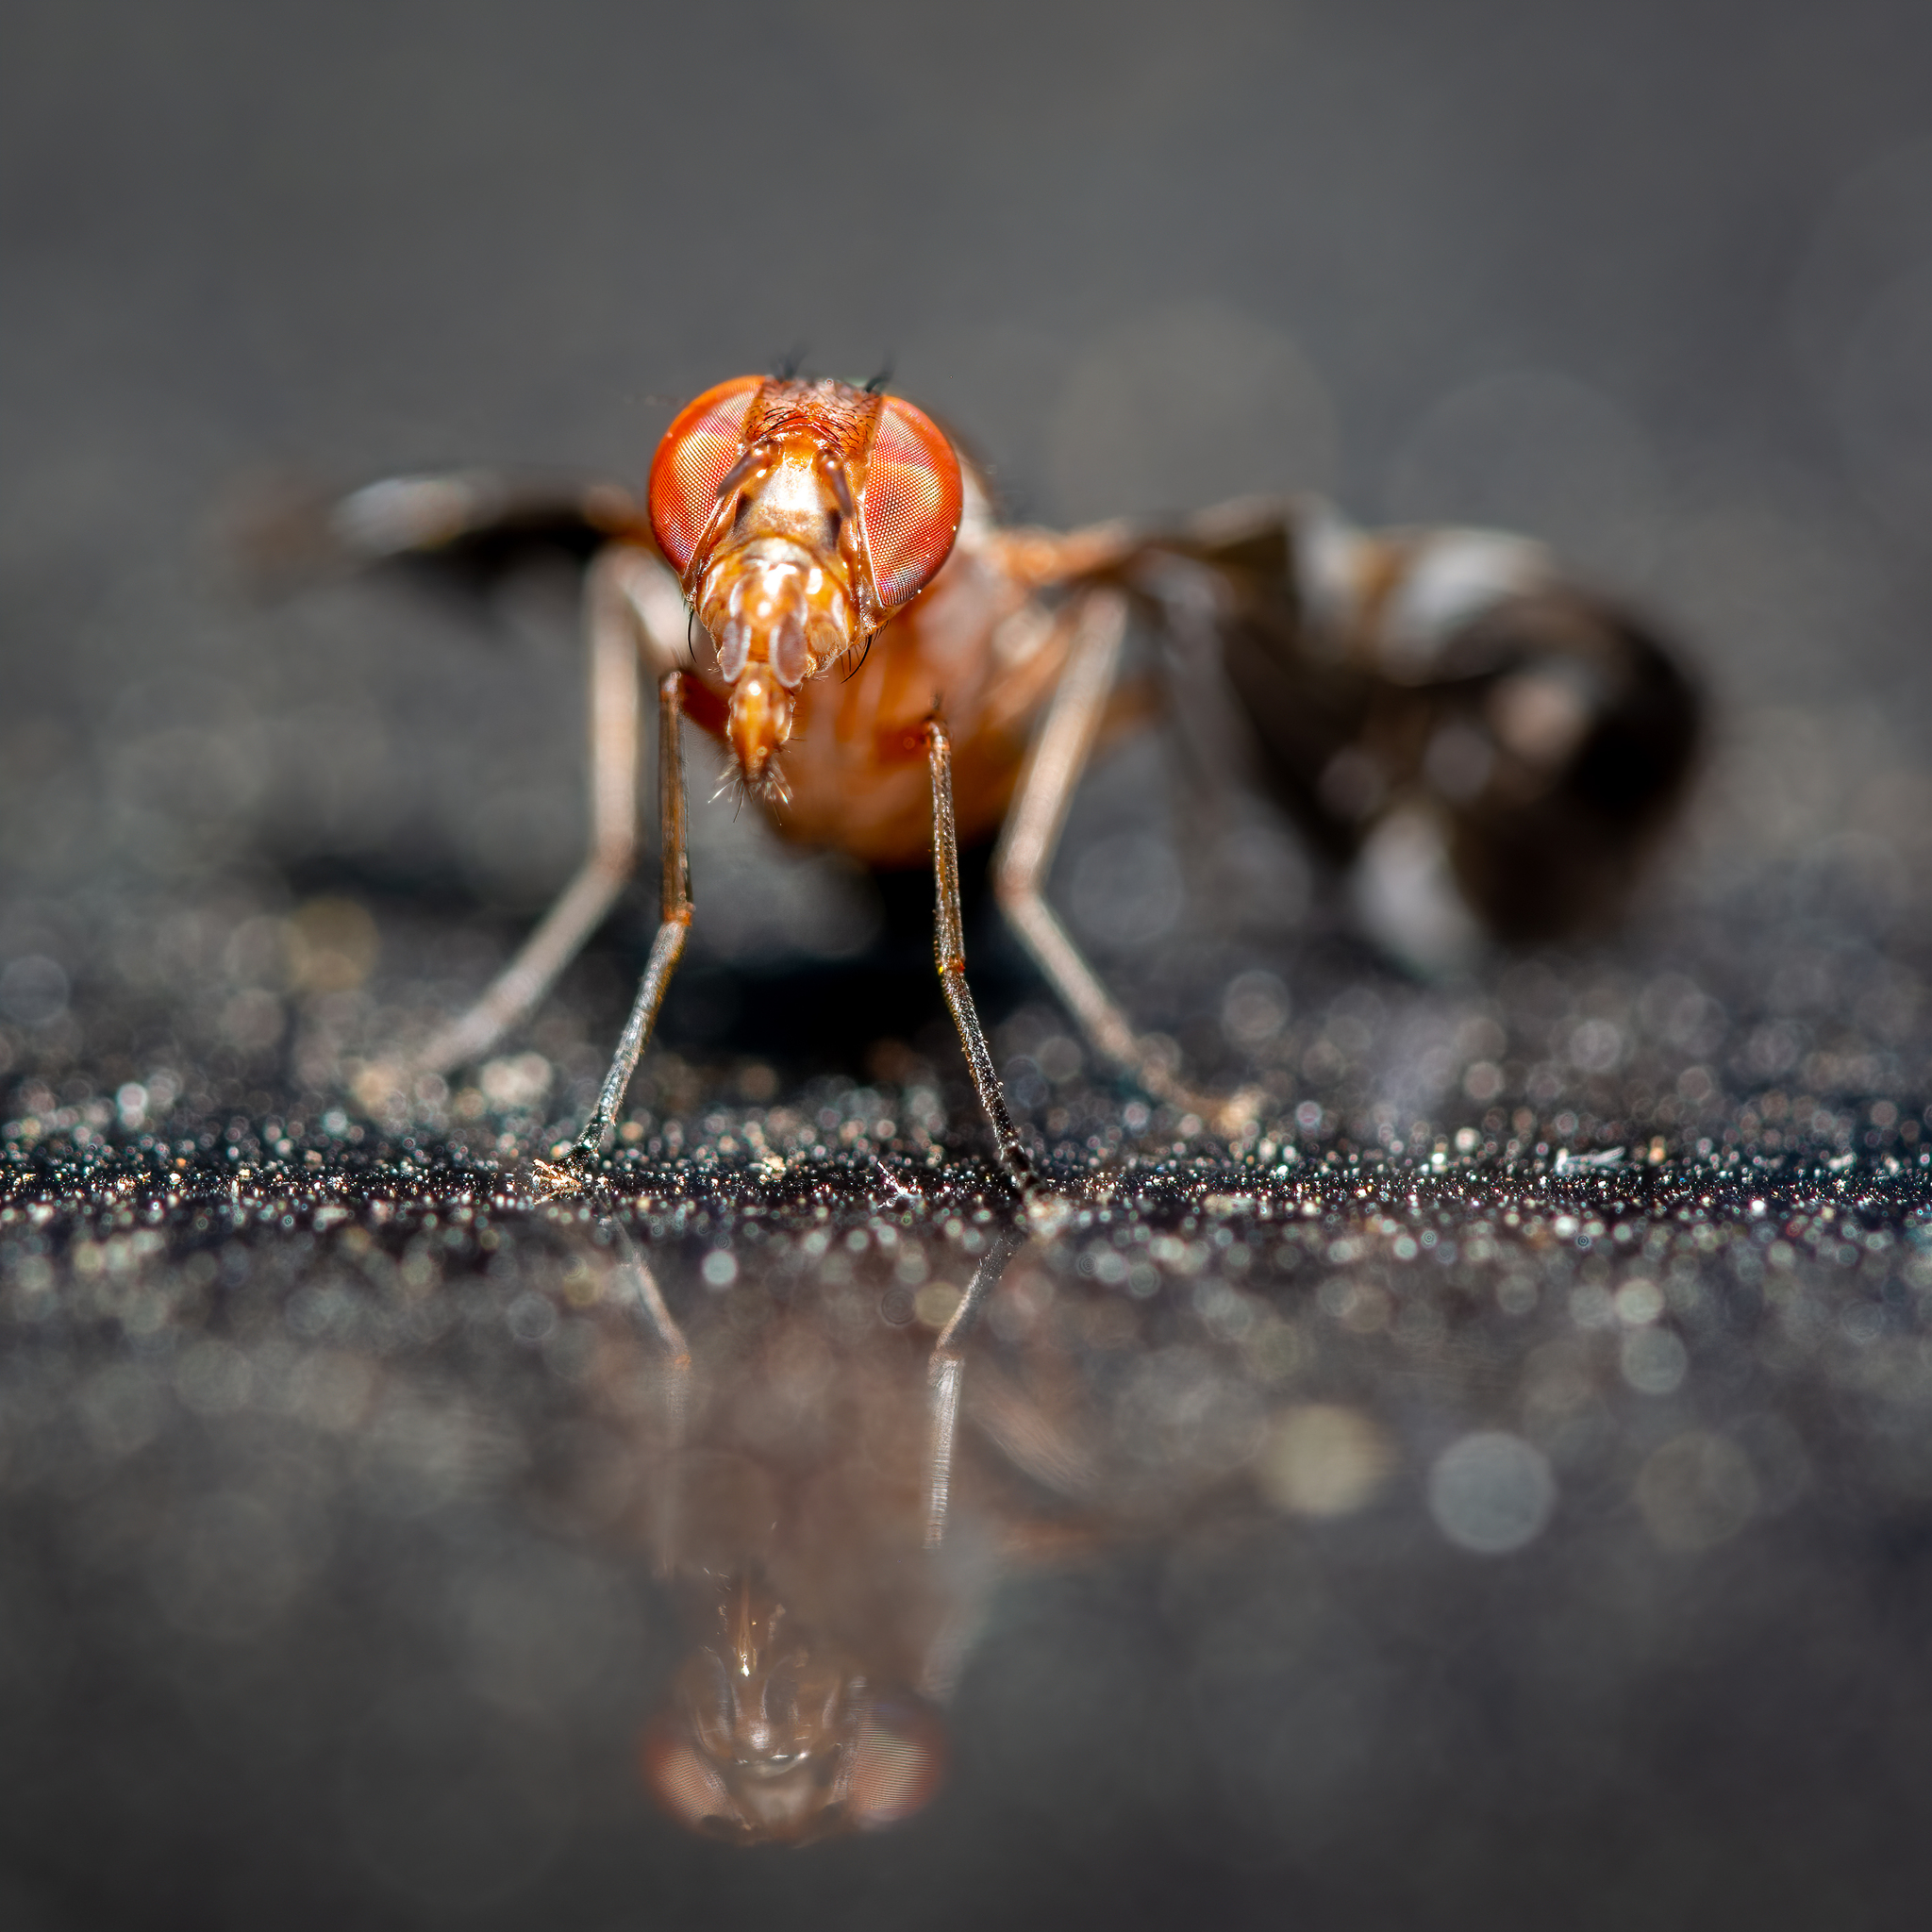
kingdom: Animalia
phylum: Arthropoda
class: Insecta
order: Diptera
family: Ulidiidae
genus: Delphinia
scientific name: Delphinia picta
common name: Common picture-winged fly
